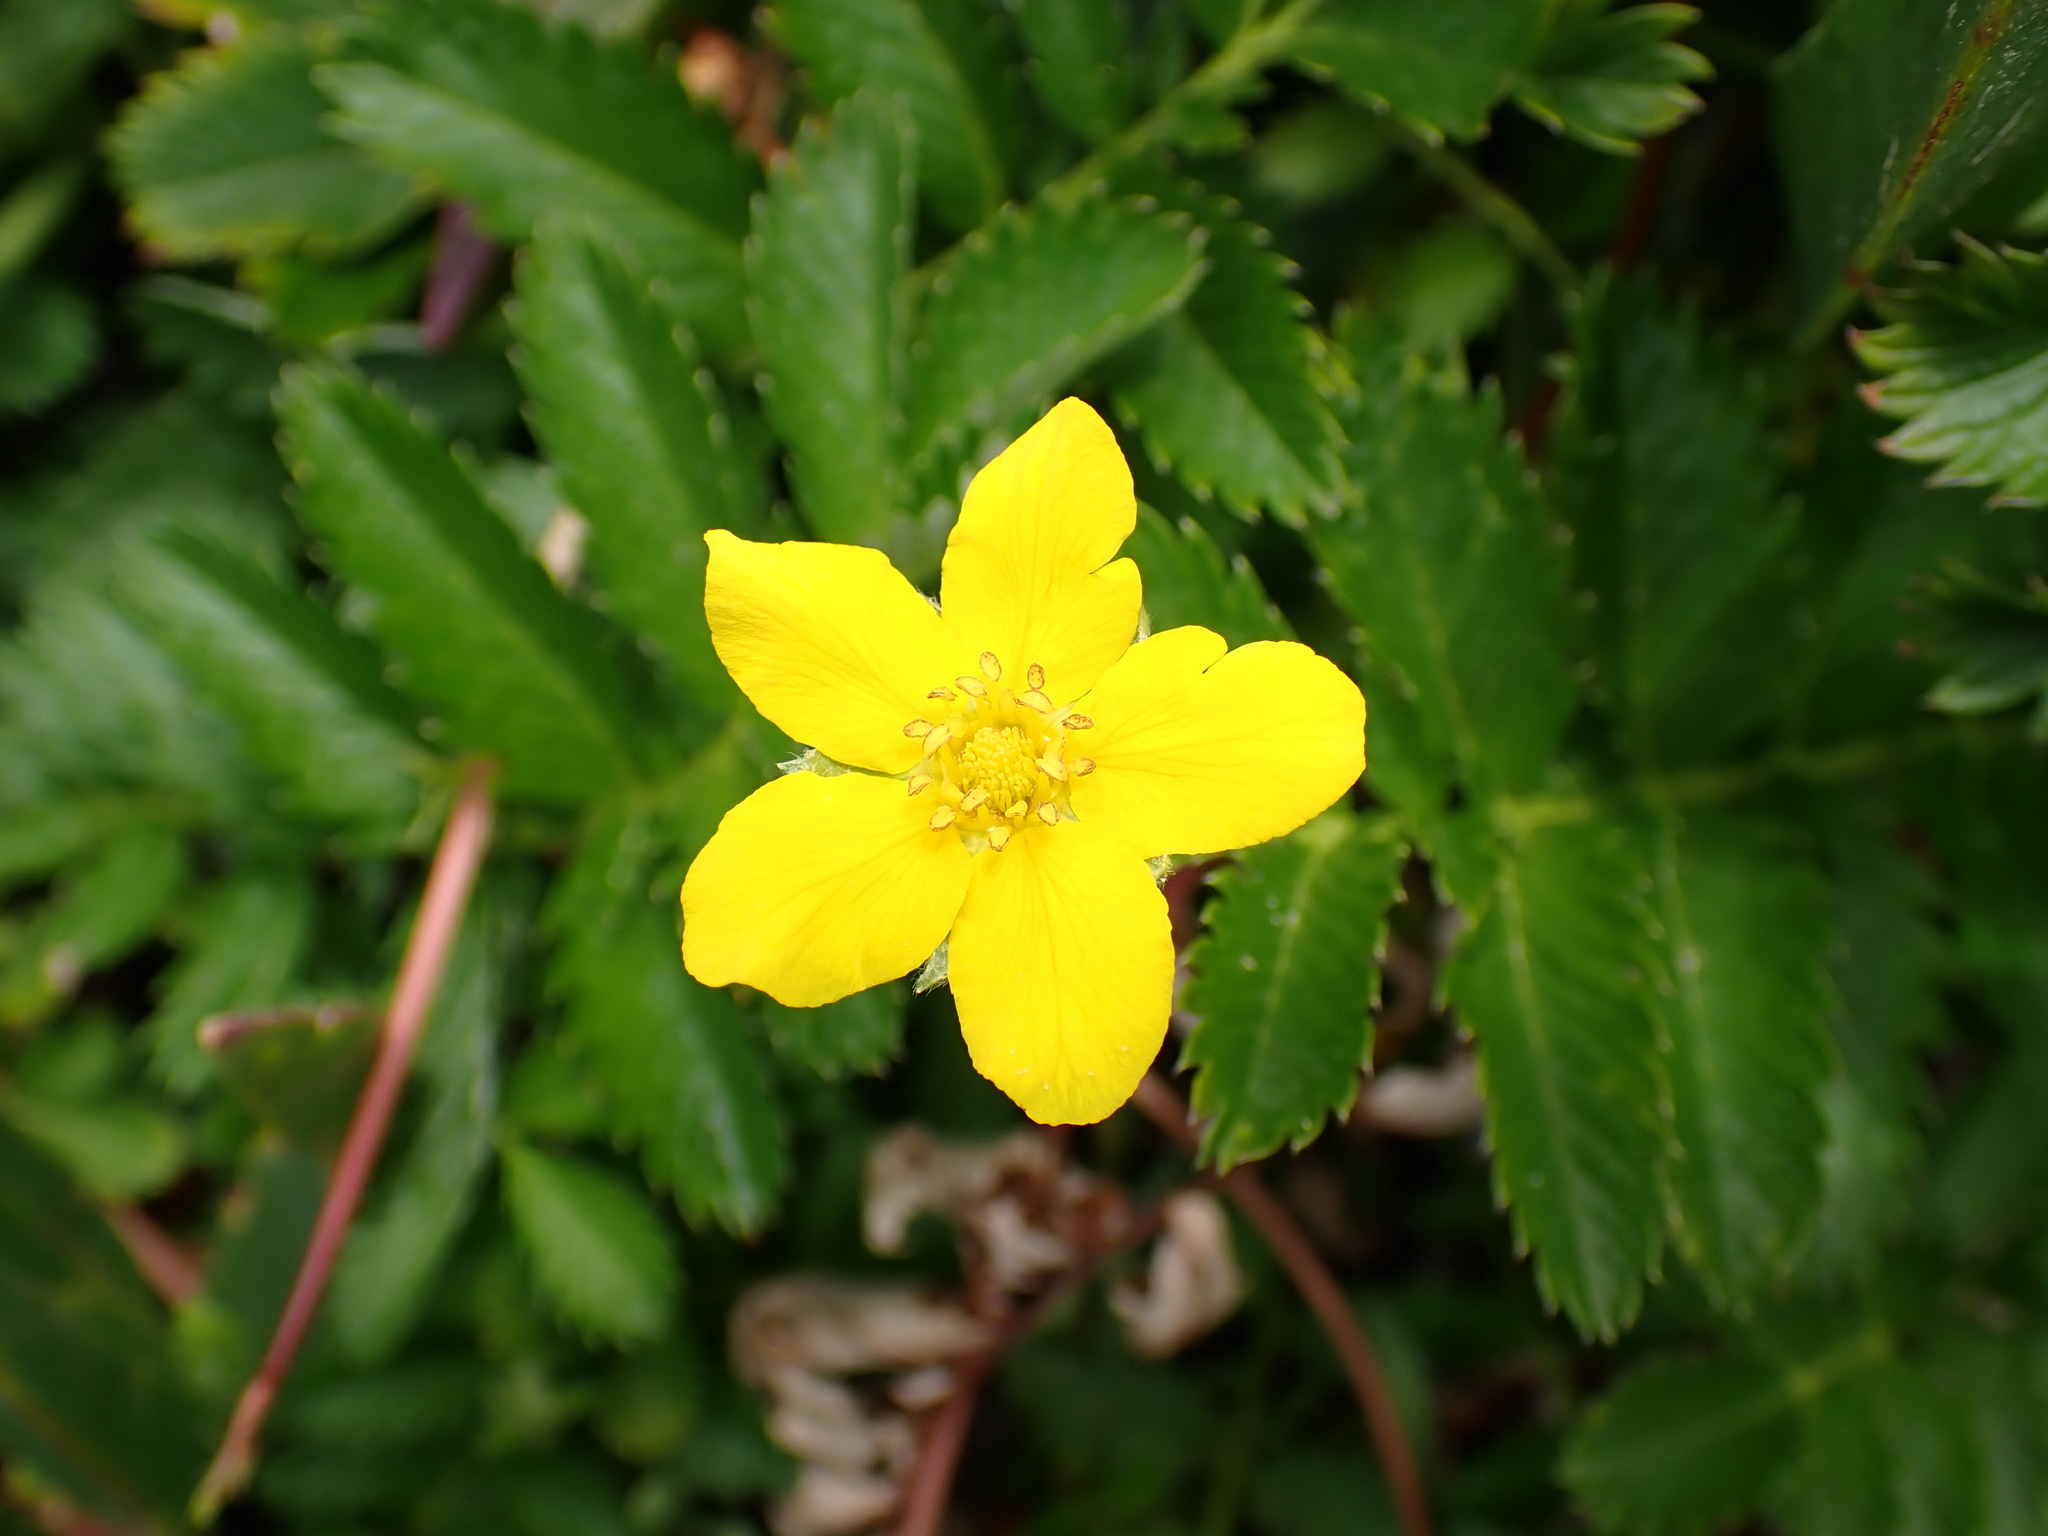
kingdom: Plantae
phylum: Tracheophyta
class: Magnoliopsida
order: Rosales
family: Rosaceae
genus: Argentina
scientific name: Argentina anserina
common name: Common silverweed
